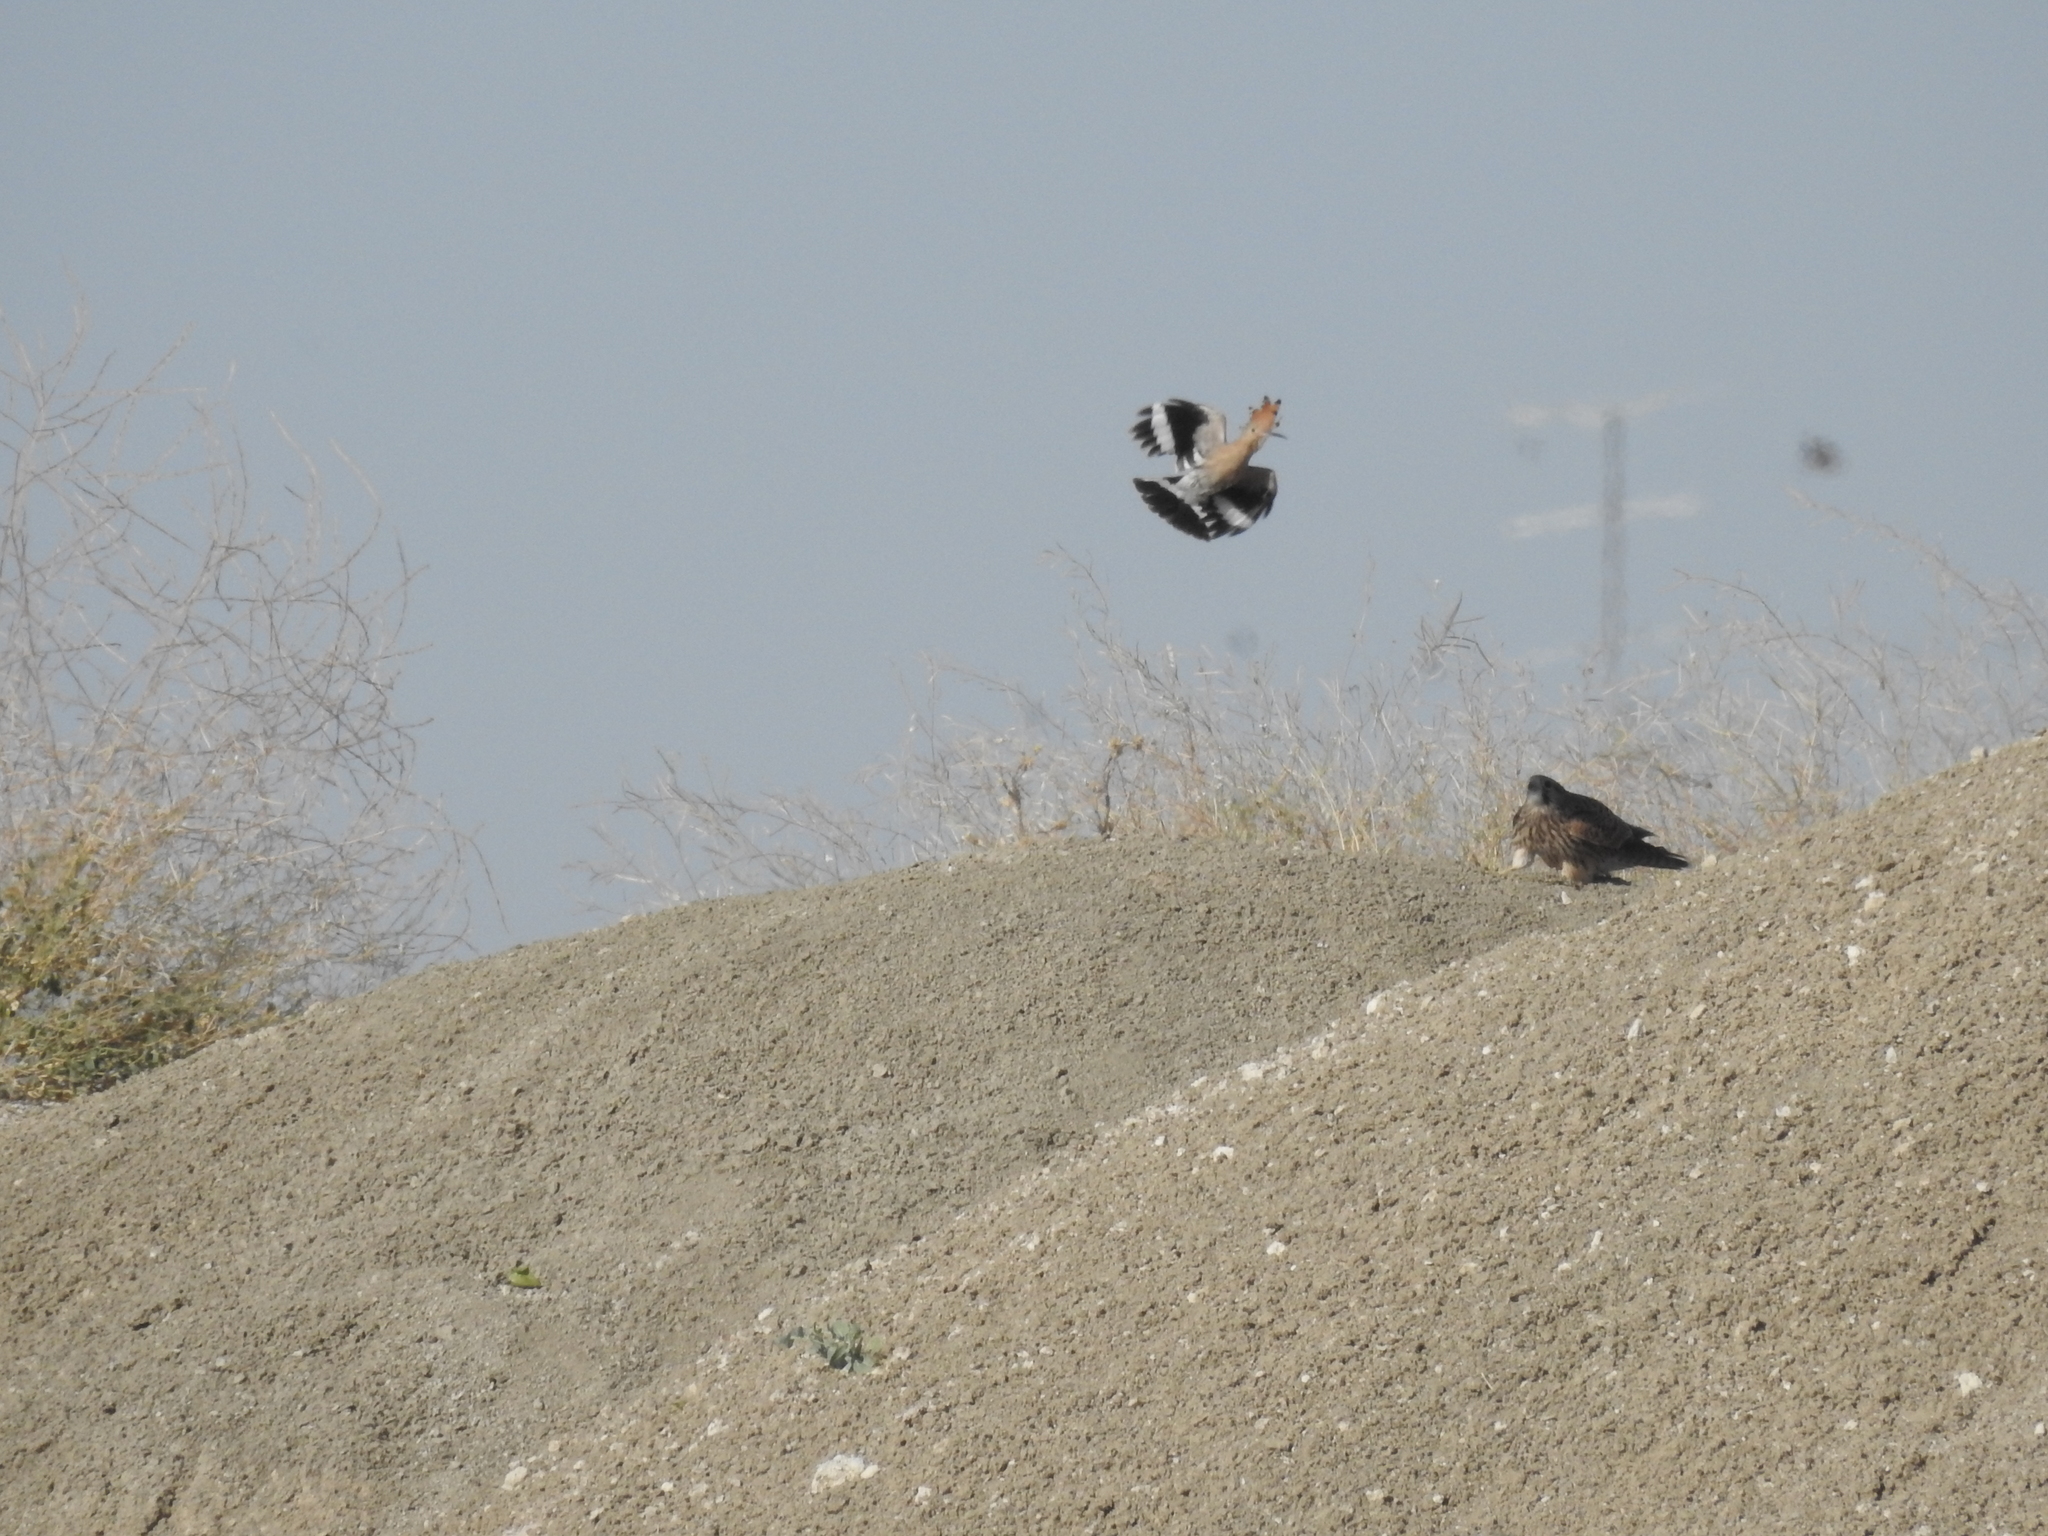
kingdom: Animalia
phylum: Chordata
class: Aves
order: Bucerotiformes
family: Upupidae
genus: Upupa
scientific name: Upupa epops
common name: Eurasian hoopoe
